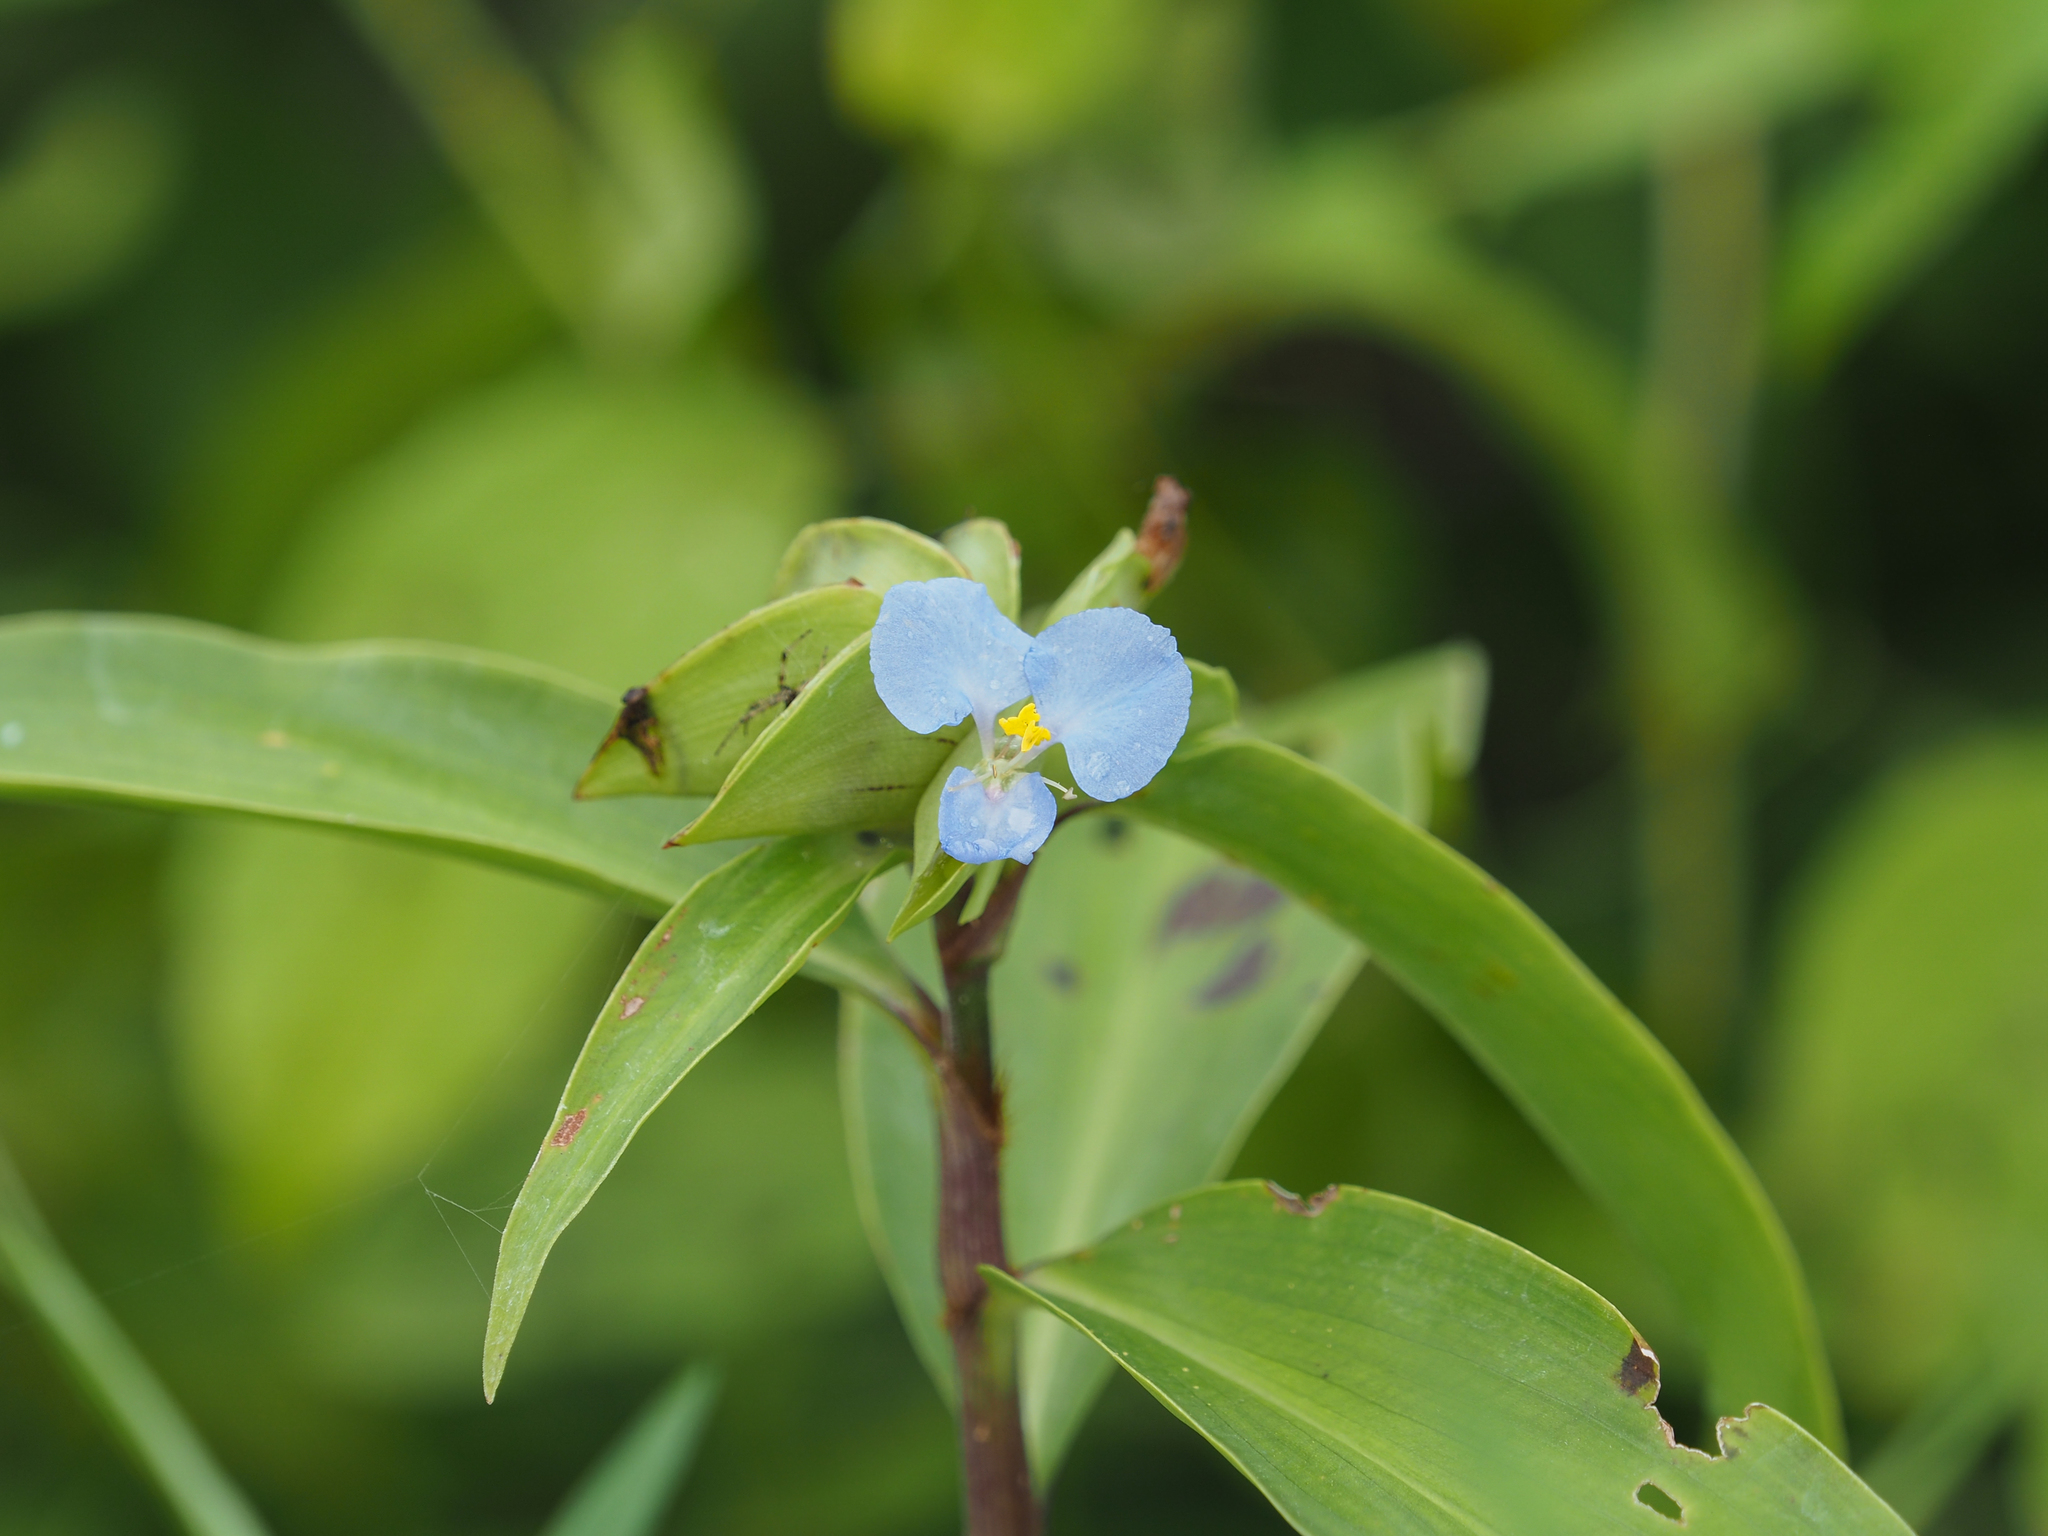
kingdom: Plantae
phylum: Tracheophyta
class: Liliopsida
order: Commelinales
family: Commelinaceae
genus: Commelina
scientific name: Commelina virginica
